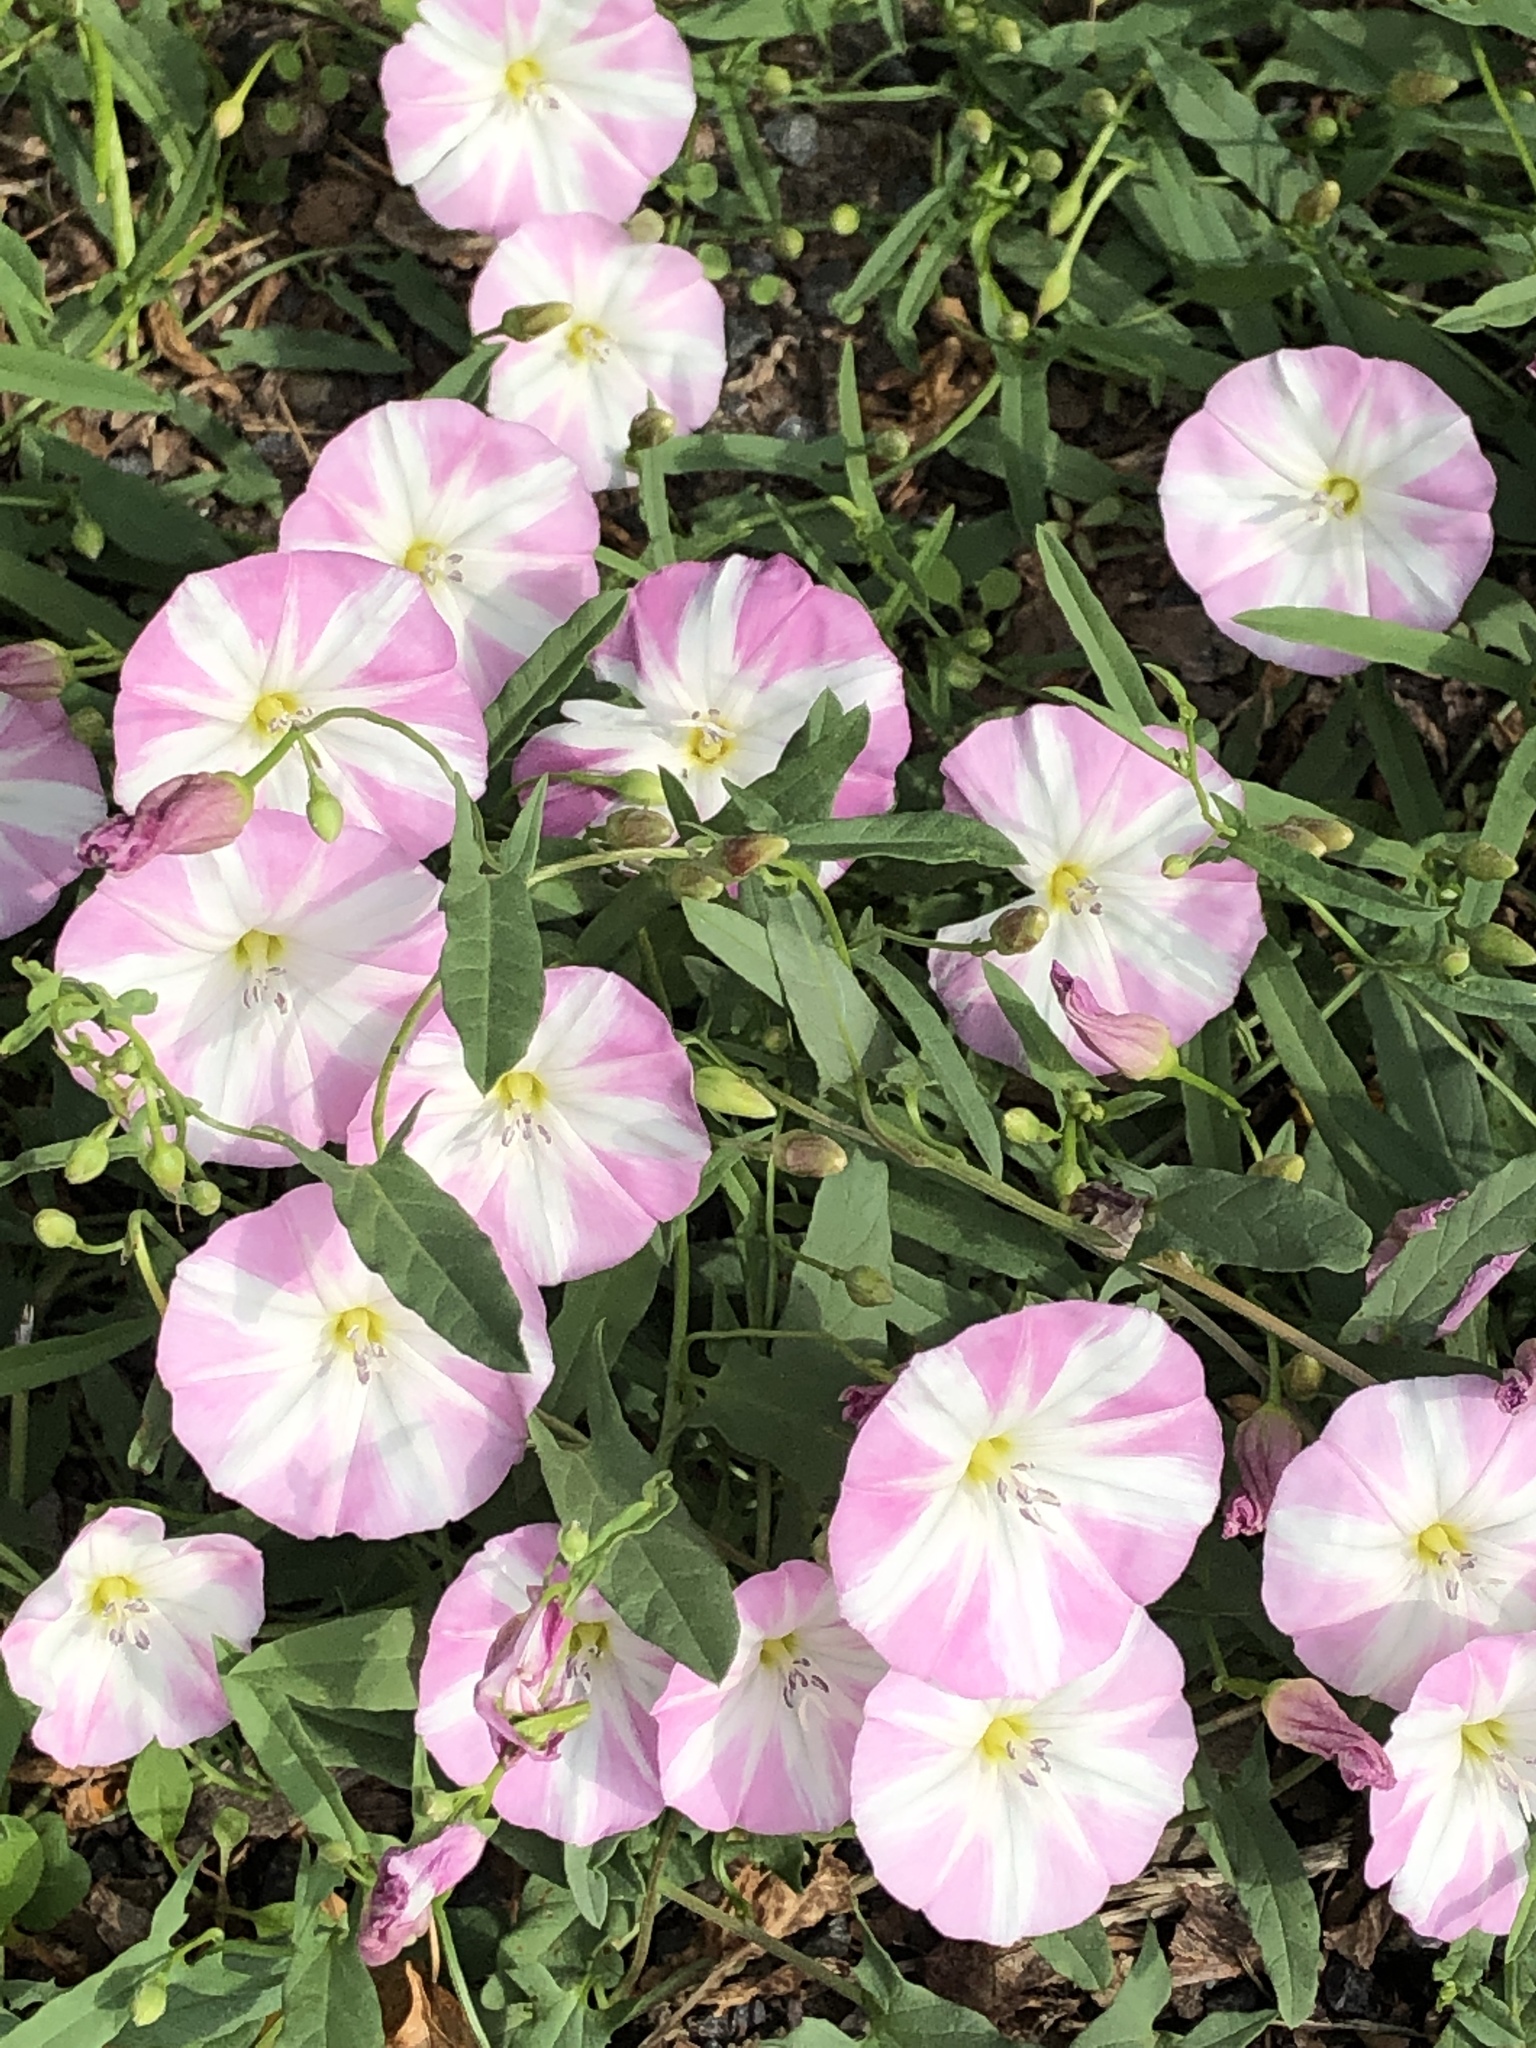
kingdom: Plantae
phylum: Tracheophyta
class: Magnoliopsida
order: Solanales
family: Convolvulaceae
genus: Convolvulus
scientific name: Convolvulus arvensis
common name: Field bindweed
